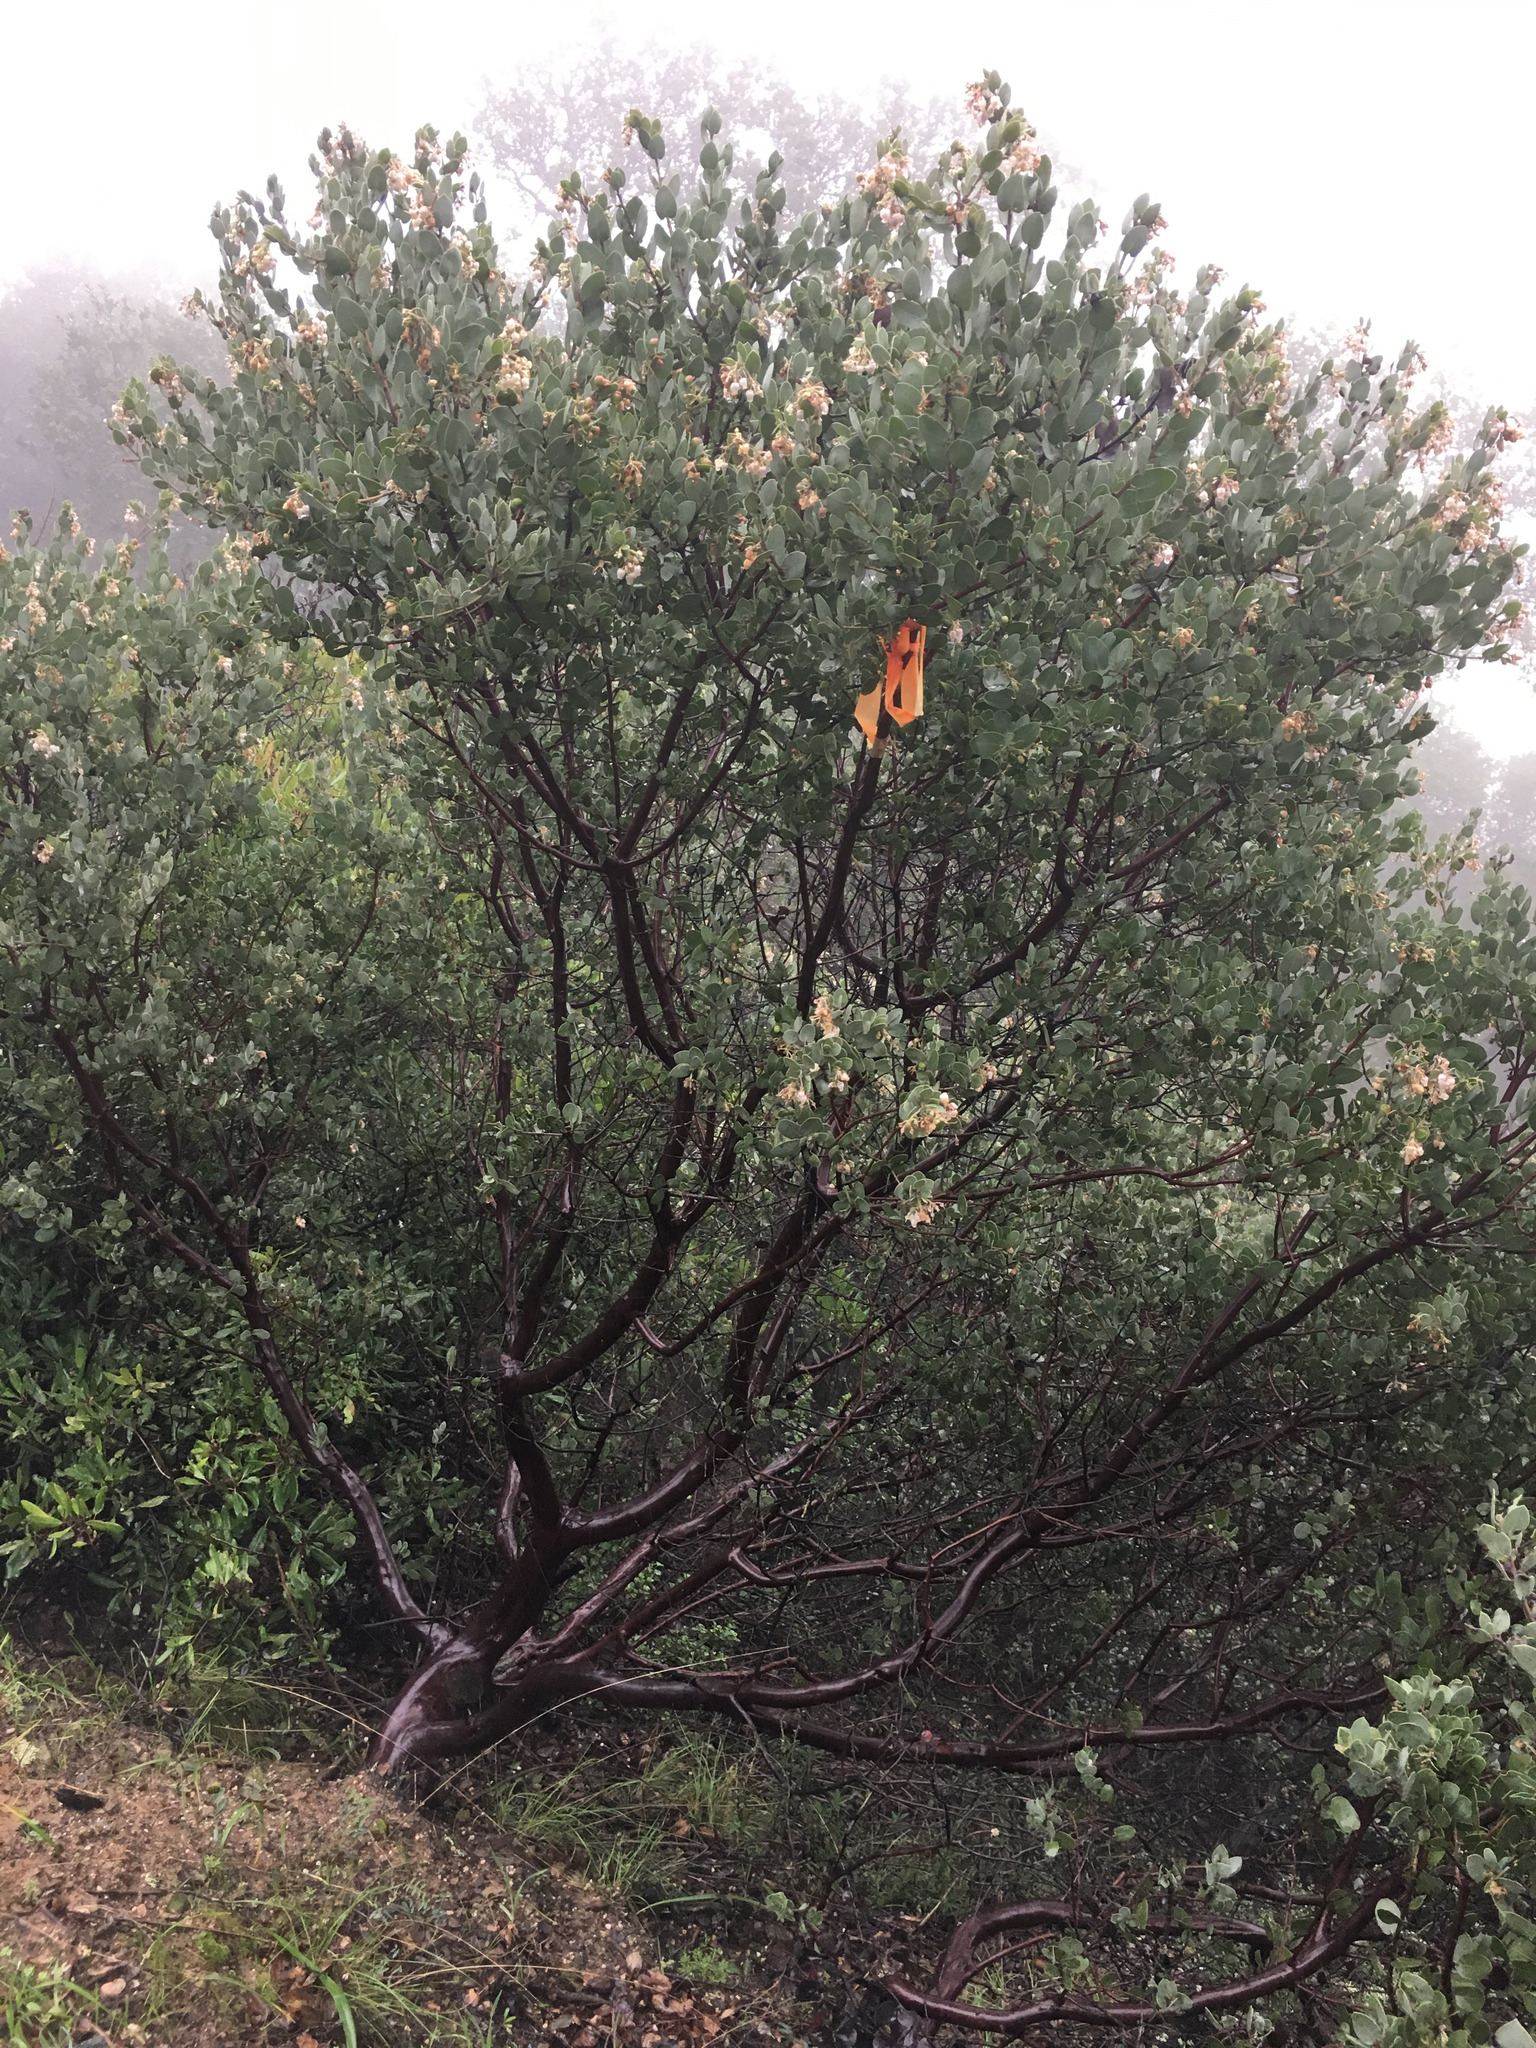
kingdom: Plantae
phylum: Tracheophyta
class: Magnoliopsida
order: Ericales
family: Ericaceae
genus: Arctostaphylos
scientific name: Arctostaphylos obispoensis
